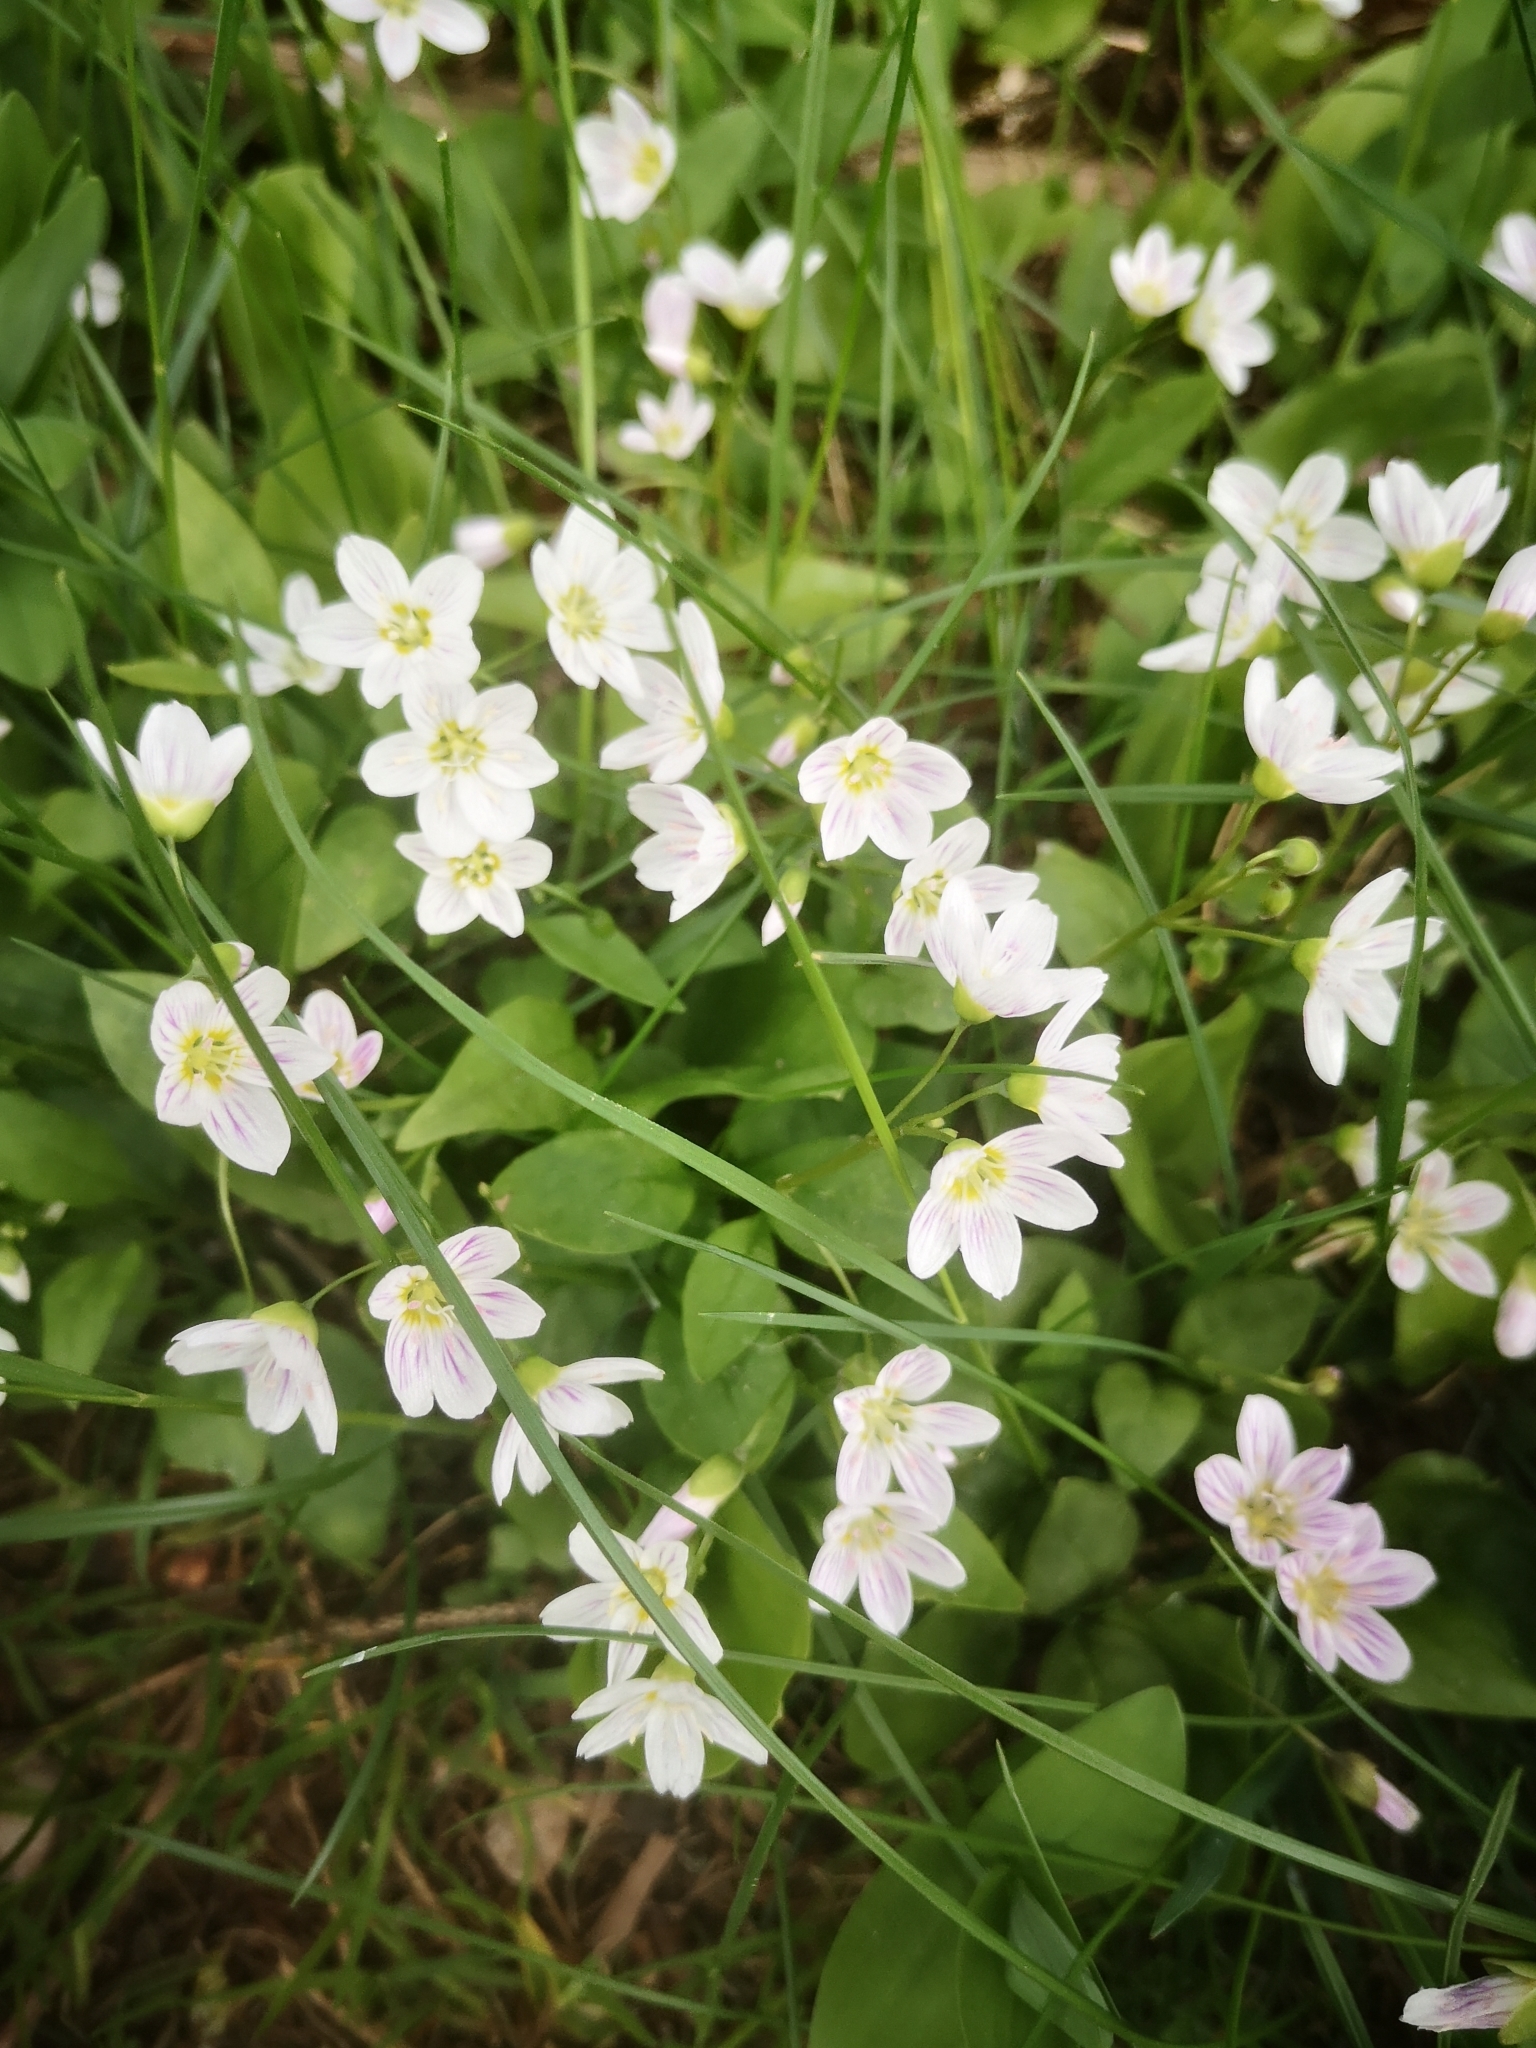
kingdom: Plantae
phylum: Tracheophyta
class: Magnoliopsida
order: Caryophyllales
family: Montiaceae
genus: Claytonia
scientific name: Claytonia caroliniana
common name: Carolina spring beauty
